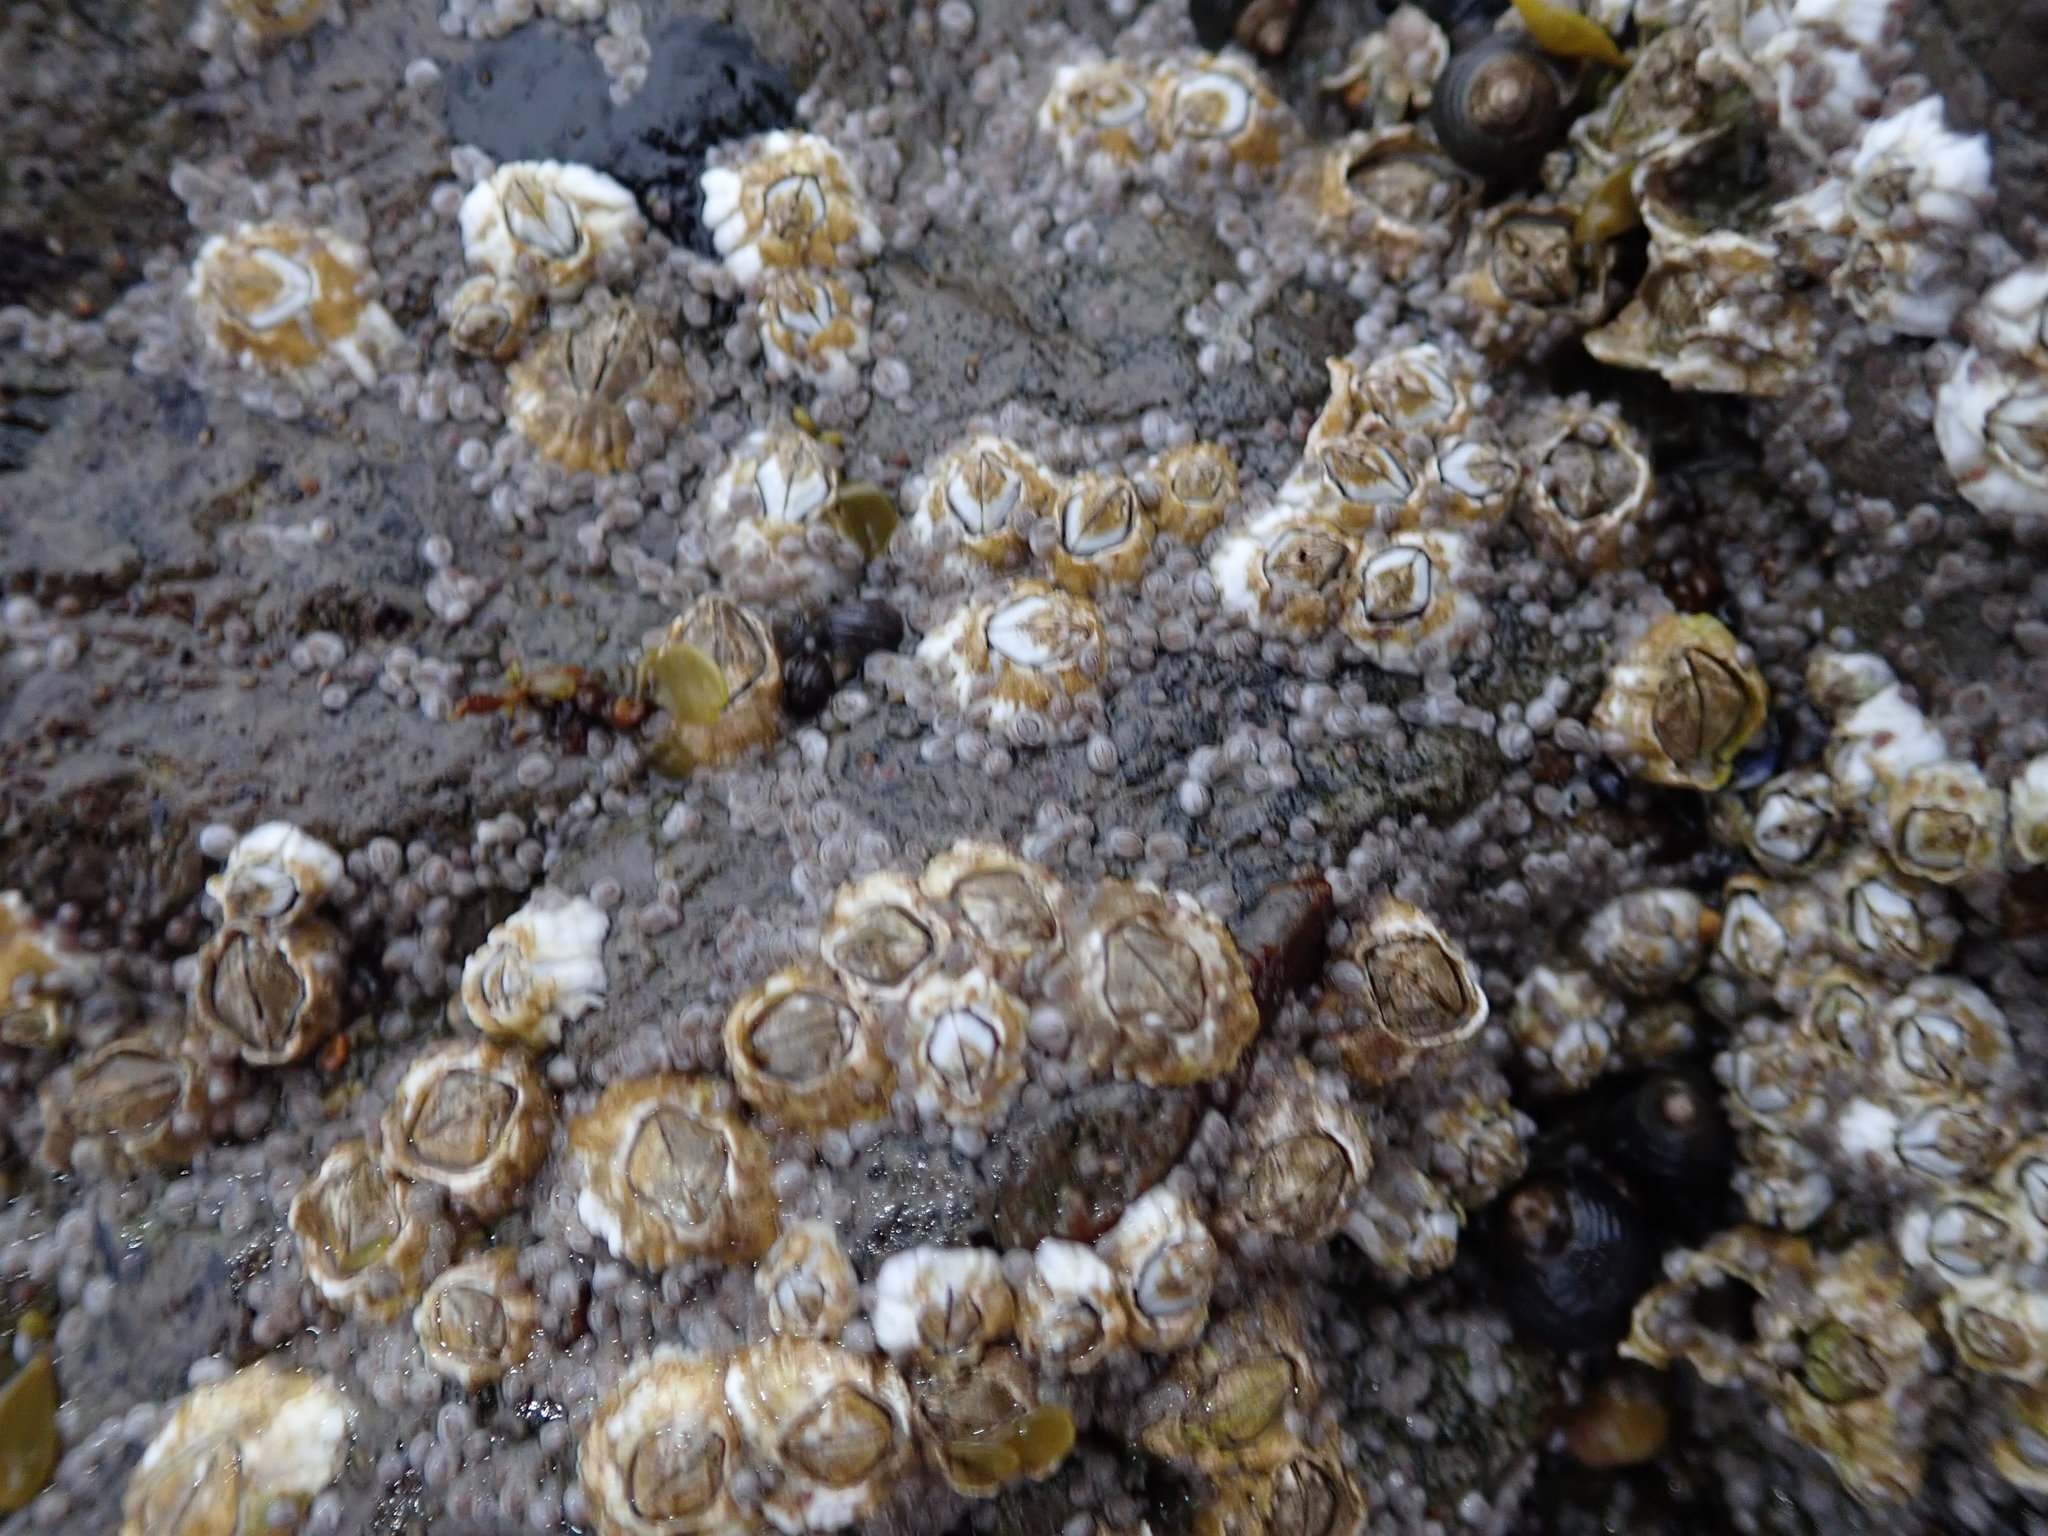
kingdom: Animalia
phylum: Arthropoda
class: Maxillopoda
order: Sessilia
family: Archaeobalanidae
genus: Semibalanus
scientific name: Semibalanus balanoides
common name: Acorn barnacle
